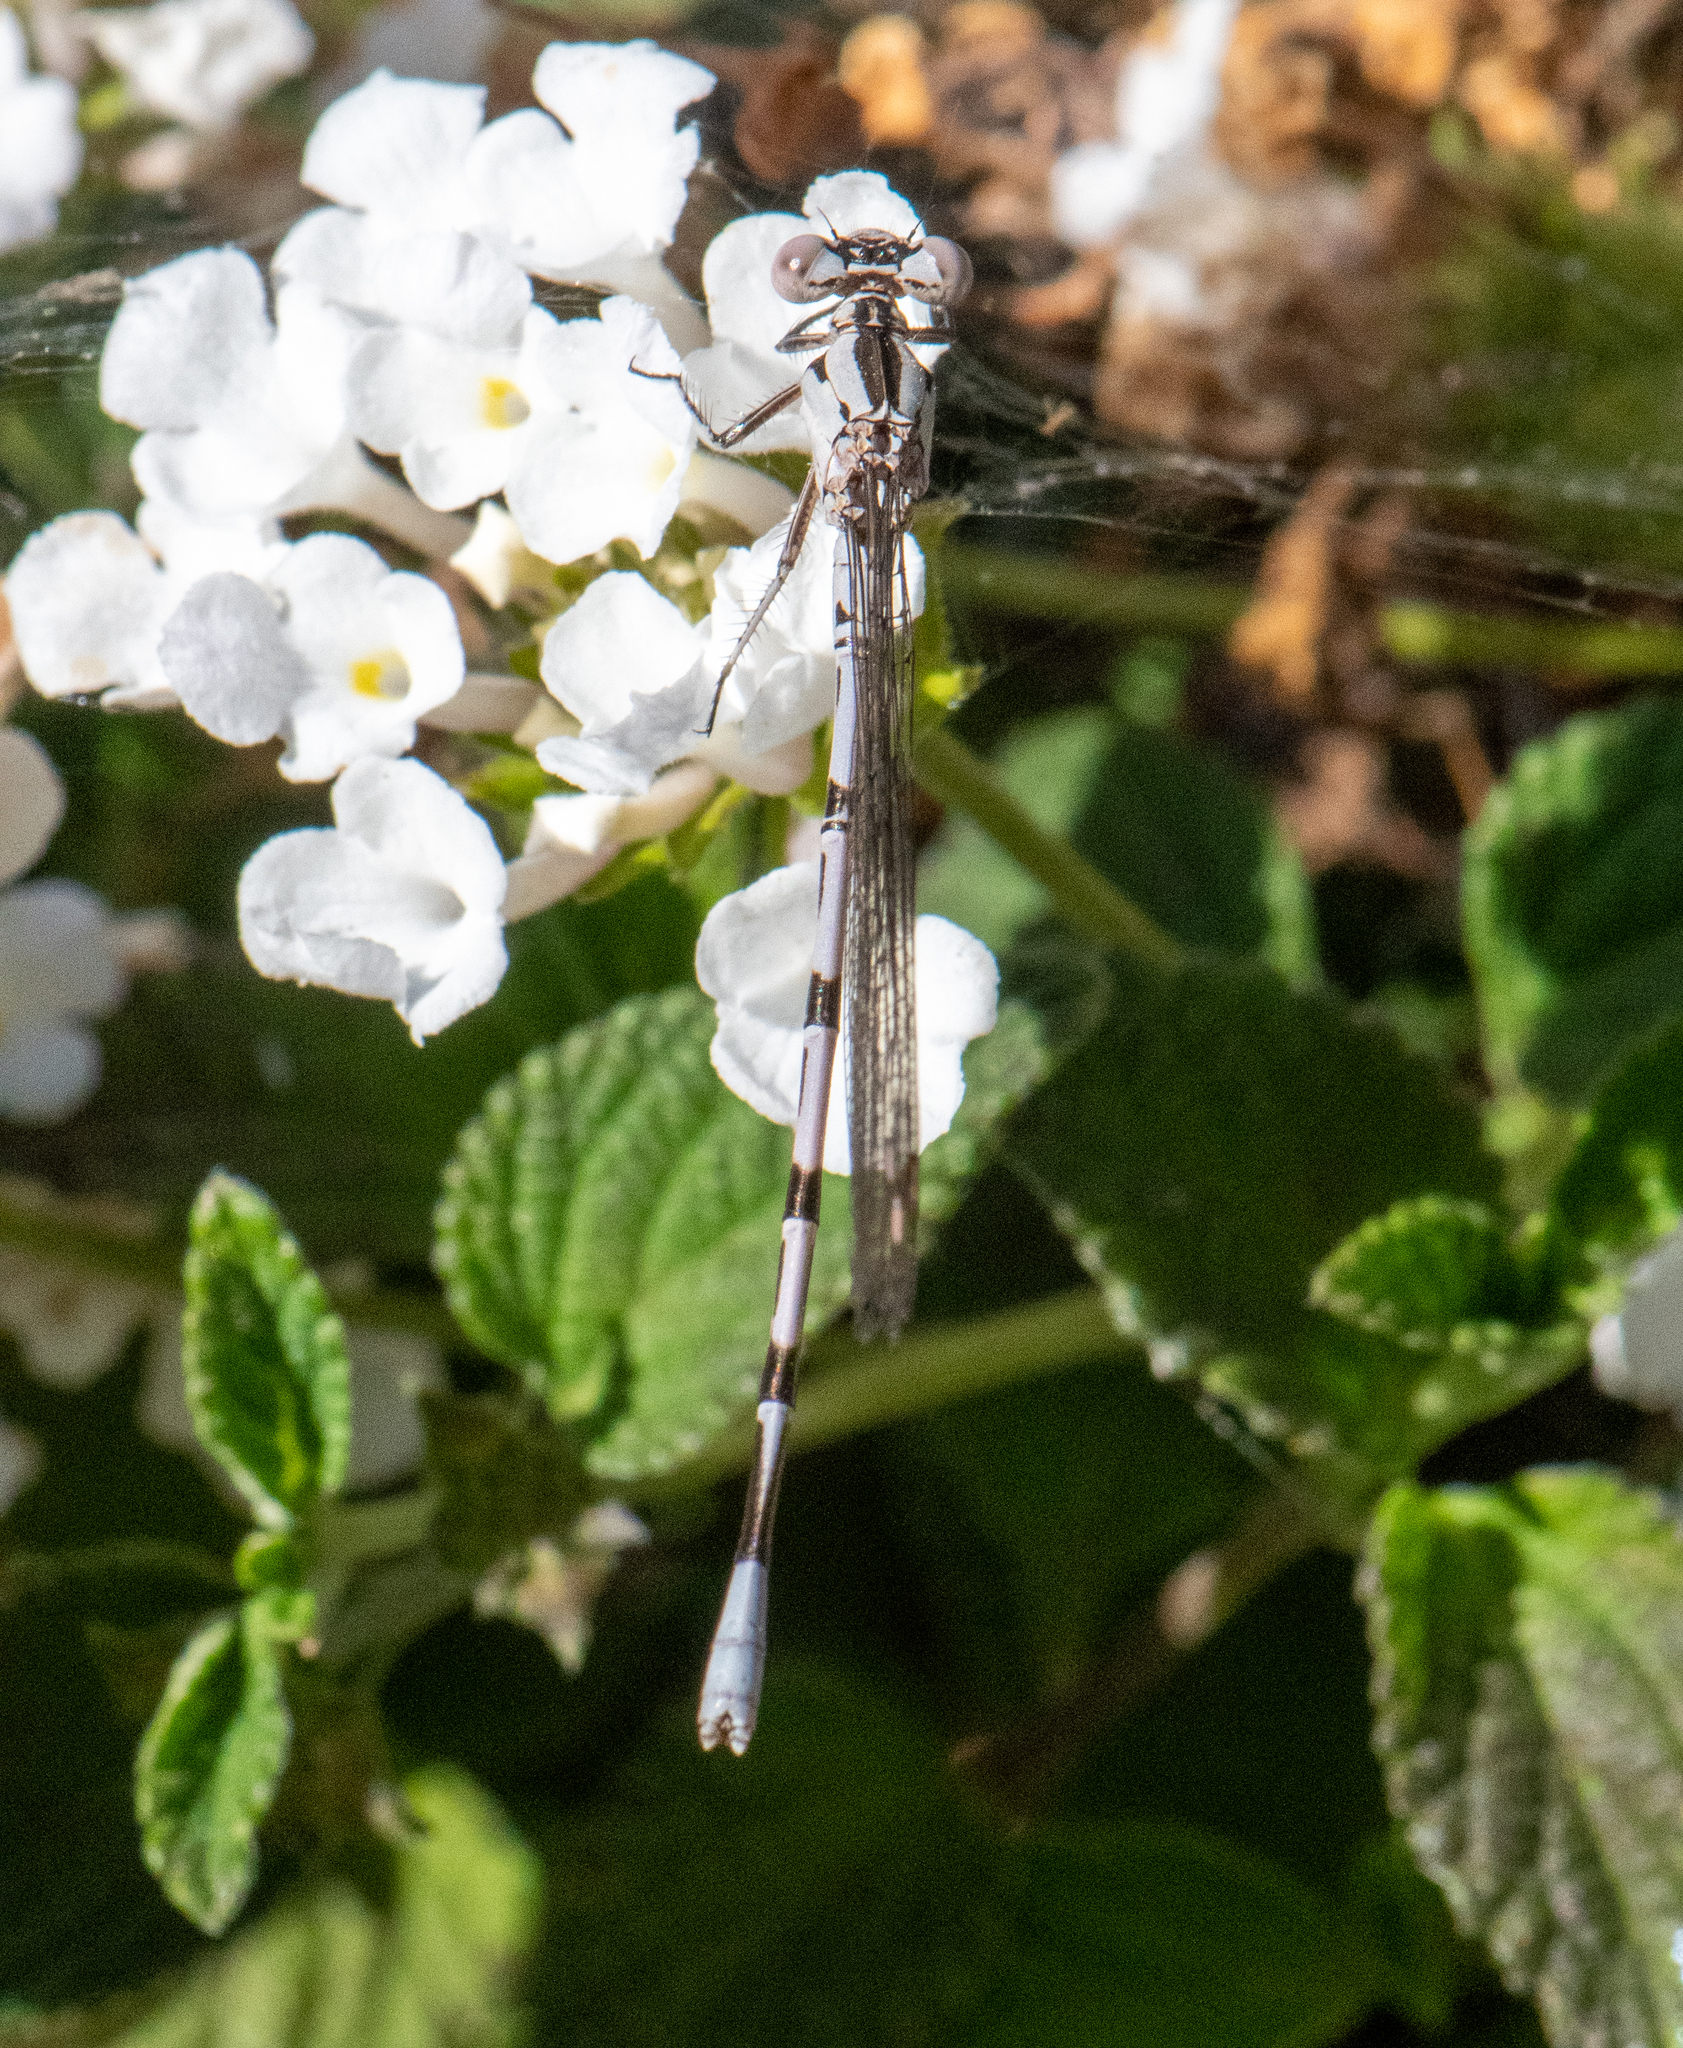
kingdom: Animalia
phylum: Arthropoda
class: Insecta
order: Odonata
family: Coenagrionidae
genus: Argia
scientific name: Argia vivida
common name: Vivid dancer
